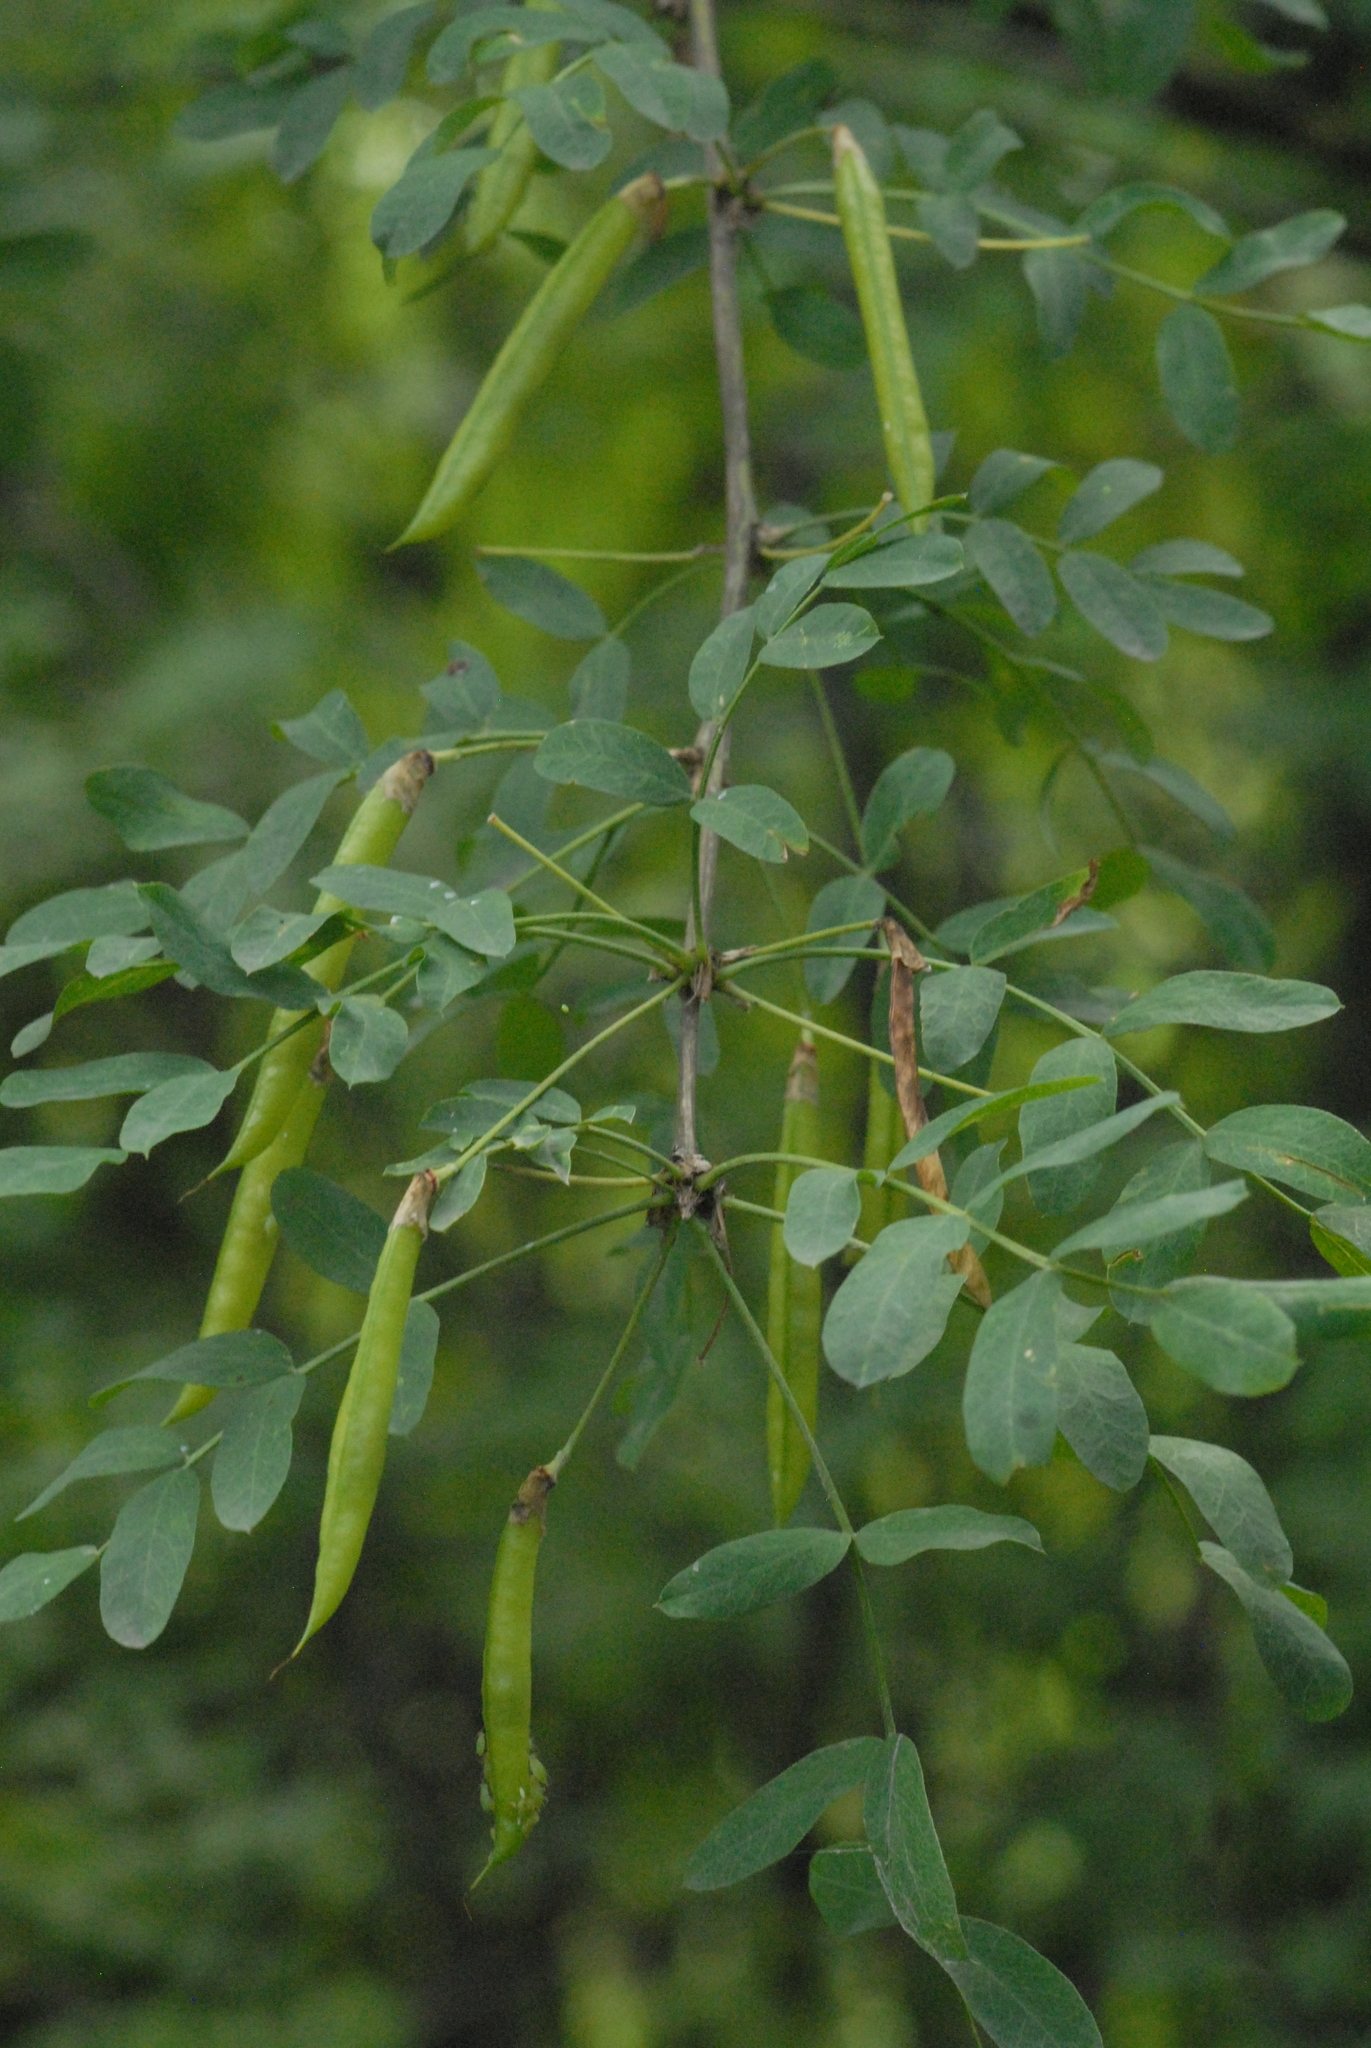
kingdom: Plantae
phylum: Tracheophyta
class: Magnoliopsida
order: Fabales
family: Fabaceae
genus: Caragana
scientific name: Caragana arborescens
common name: Siberian peashrub
